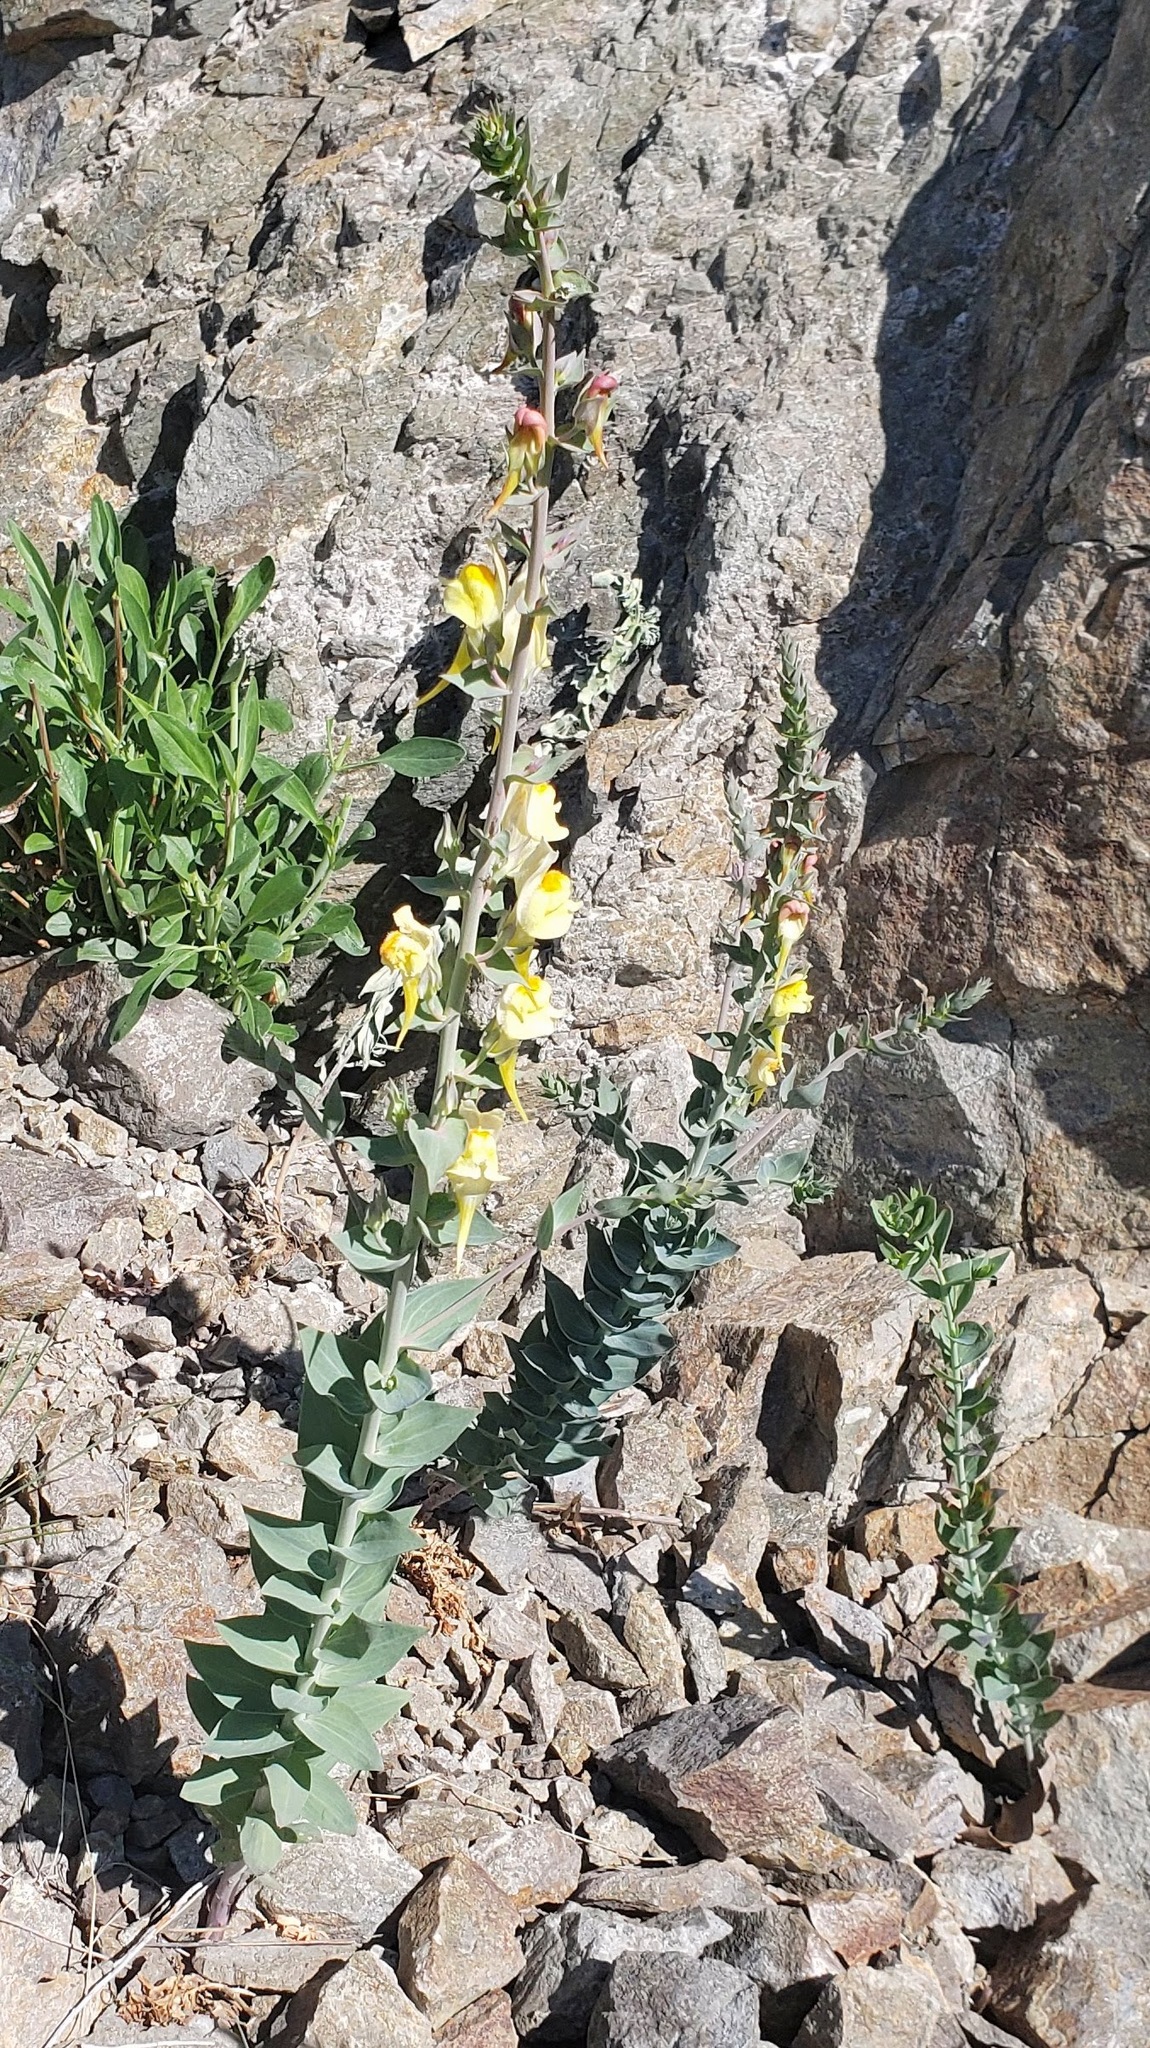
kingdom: Plantae
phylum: Tracheophyta
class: Magnoliopsida
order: Lamiales
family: Plantaginaceae
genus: Linaria
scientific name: Linaria dalmatica
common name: Dalmatian toadflax
